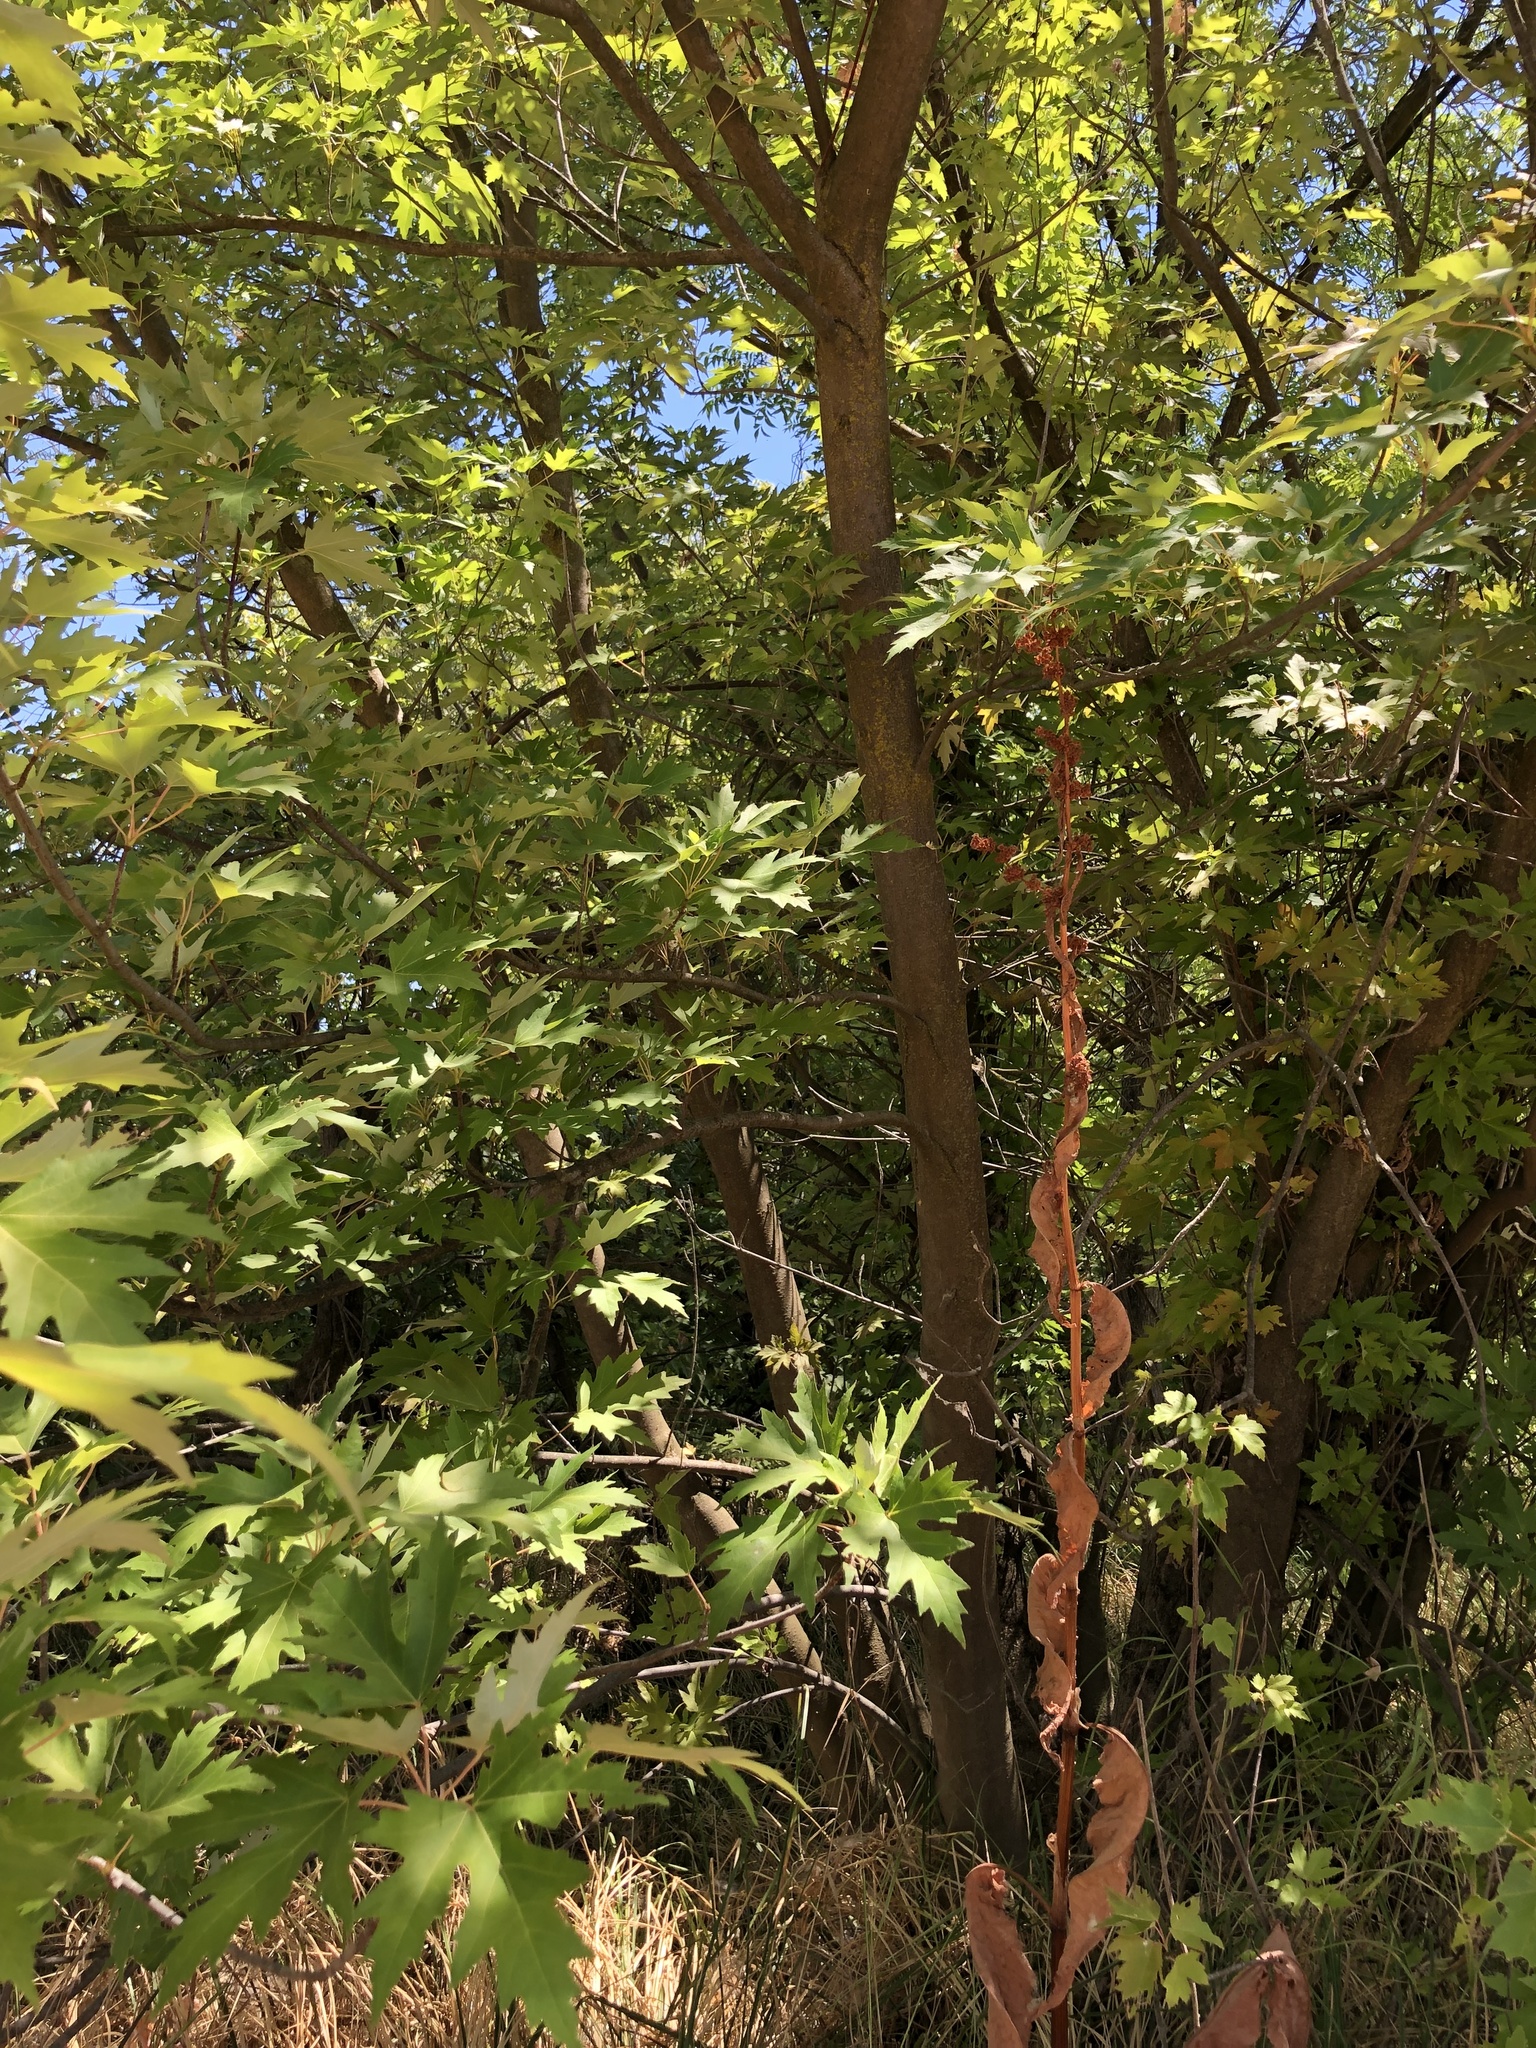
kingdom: Plantae
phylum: Tracheophyta
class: Magnoliopsida
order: Sapindales
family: Sapindaceae
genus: Acer
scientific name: Acer saccharinum
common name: Silver maple
